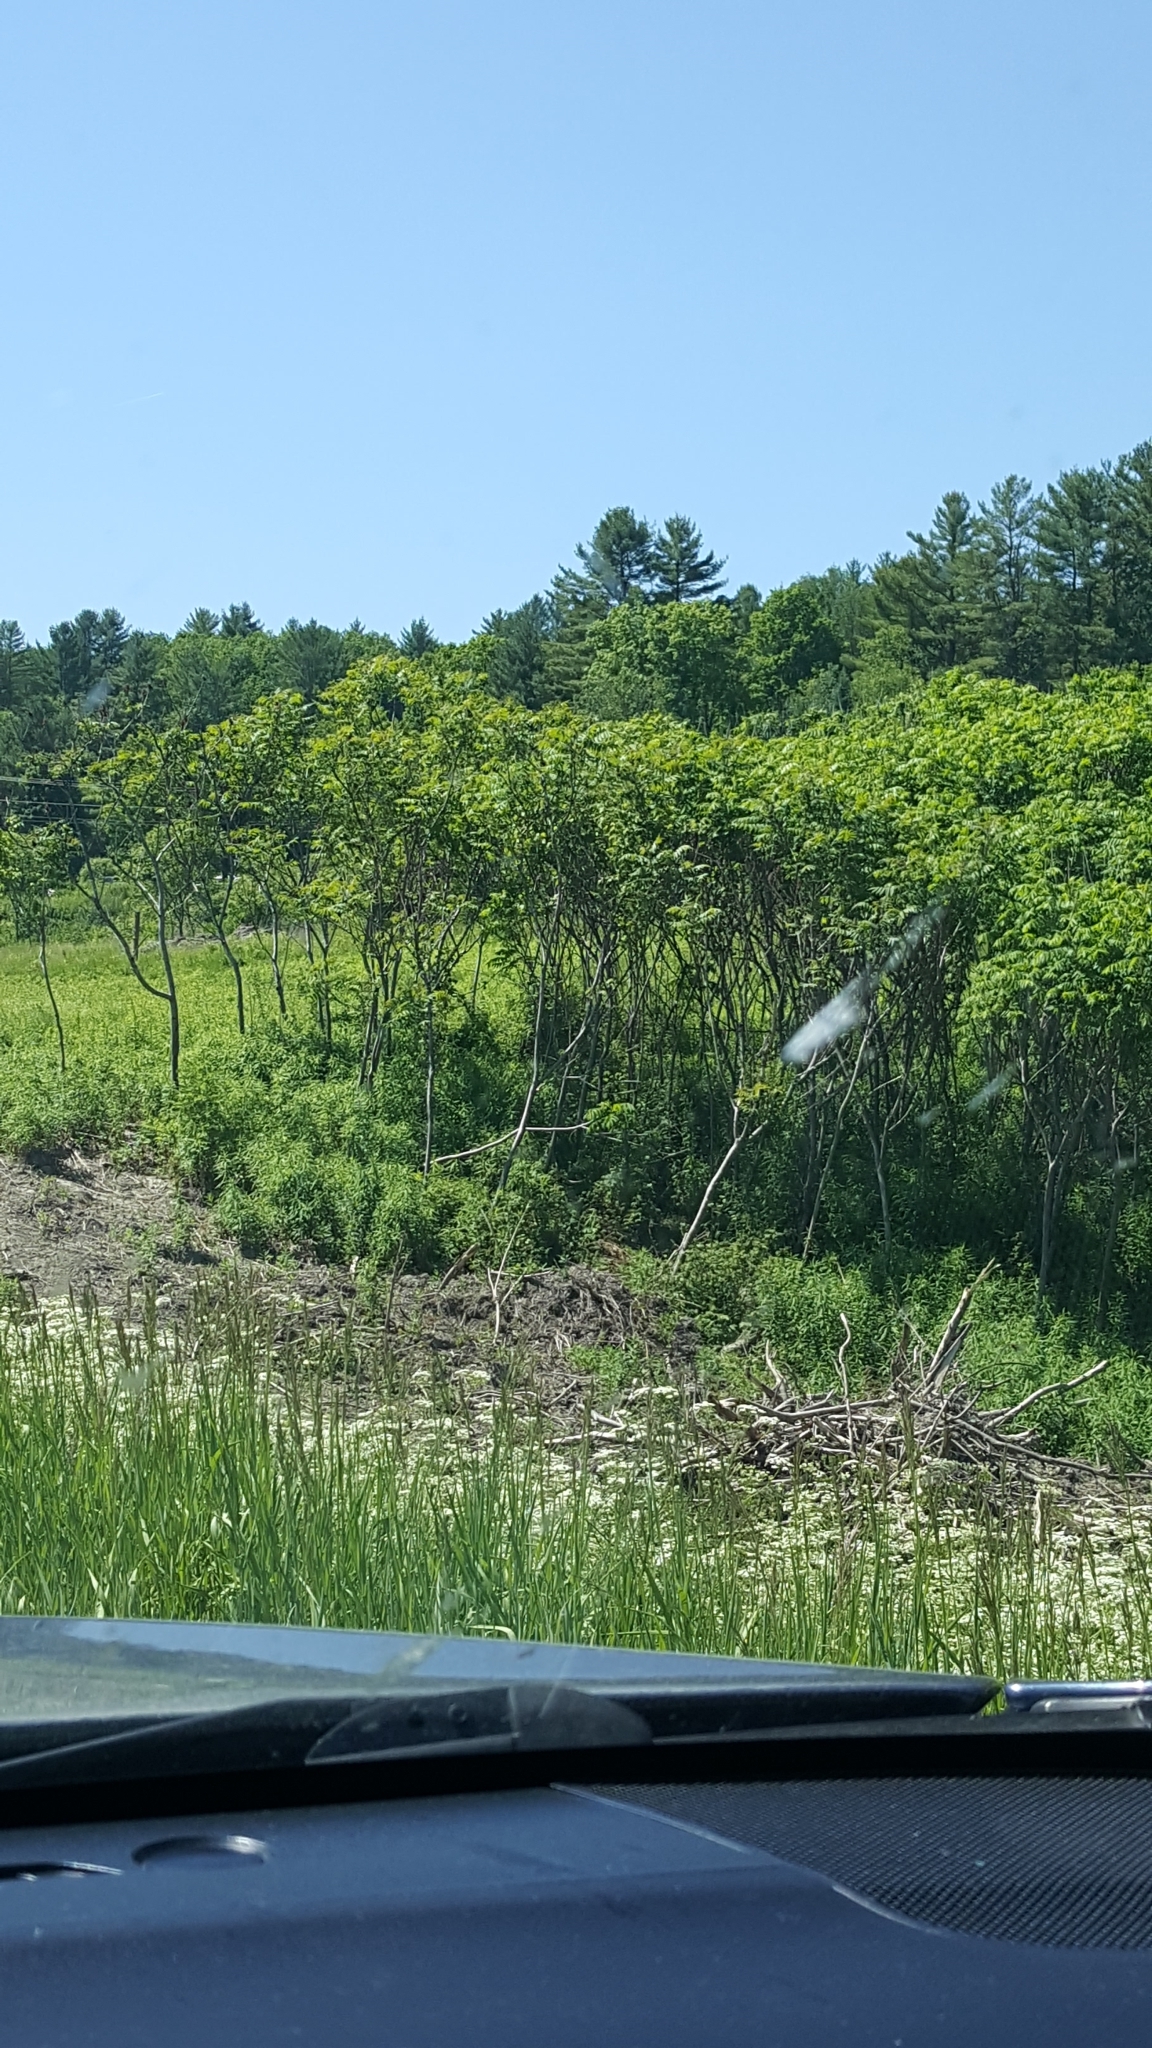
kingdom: Plantae
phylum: Tracheophyta
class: Magnoliopsida
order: Sapindales
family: Anacardiaceae
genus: Rhus
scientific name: Rhus typhina
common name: Staghorn sumac
